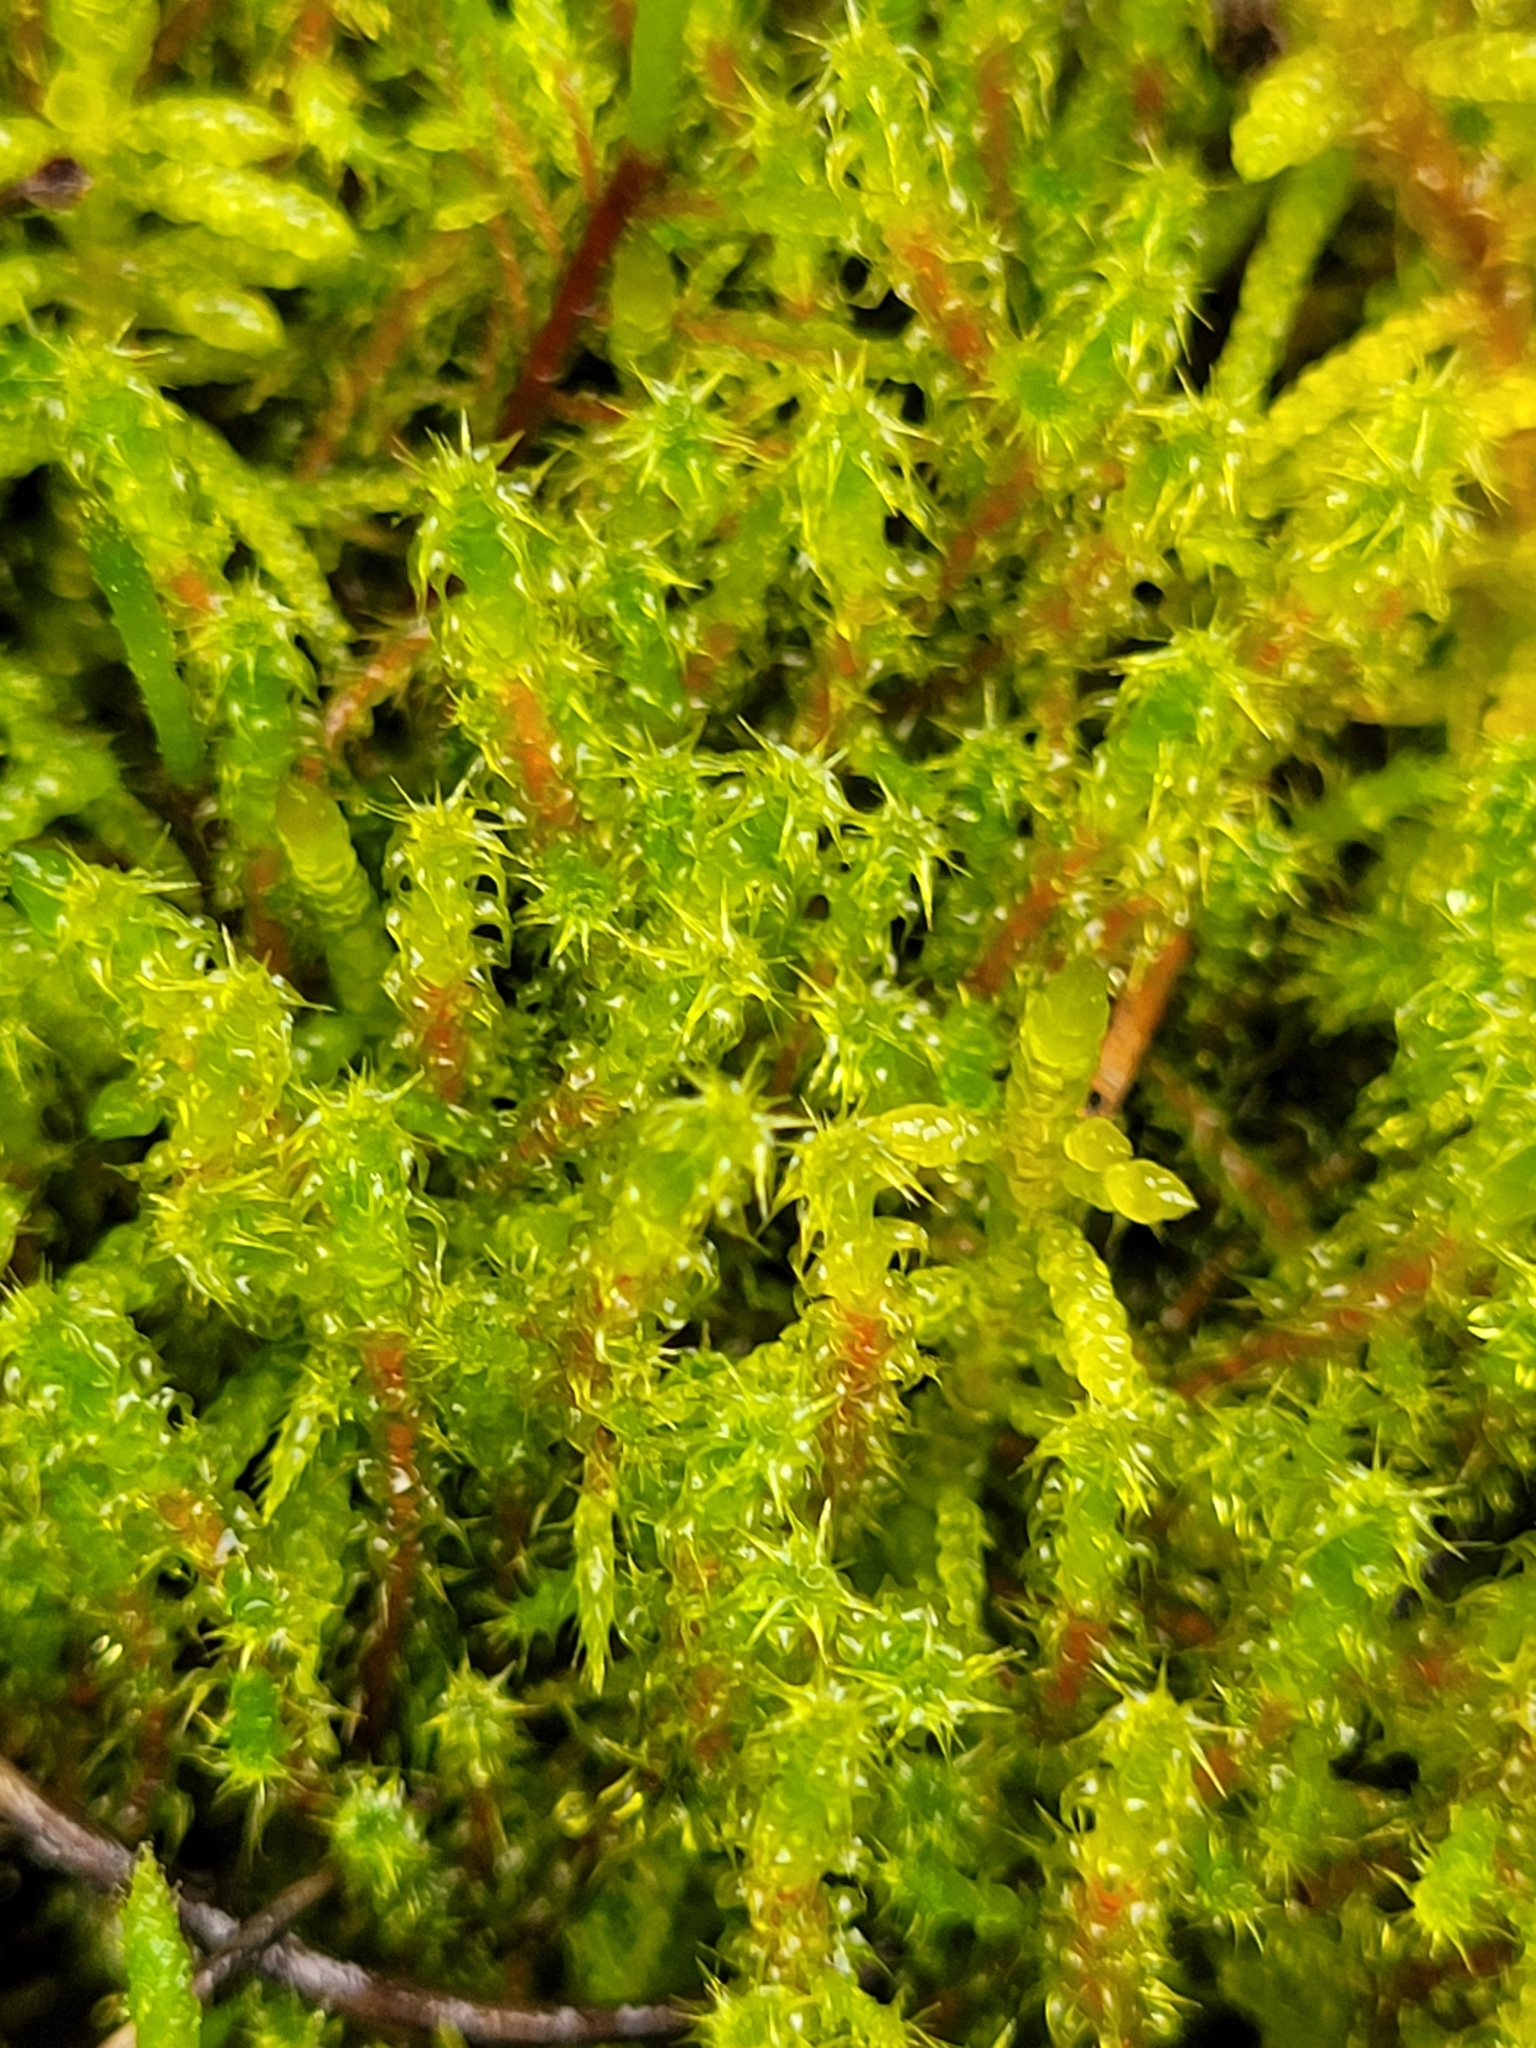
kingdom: Plantae
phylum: Bryophyta
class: Bryopsida
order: Hypnales
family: Hylocomiaceae
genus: Rhytidiadelphus
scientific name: Rhytidiadelphus squarrosus
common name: Springy turf-moss
